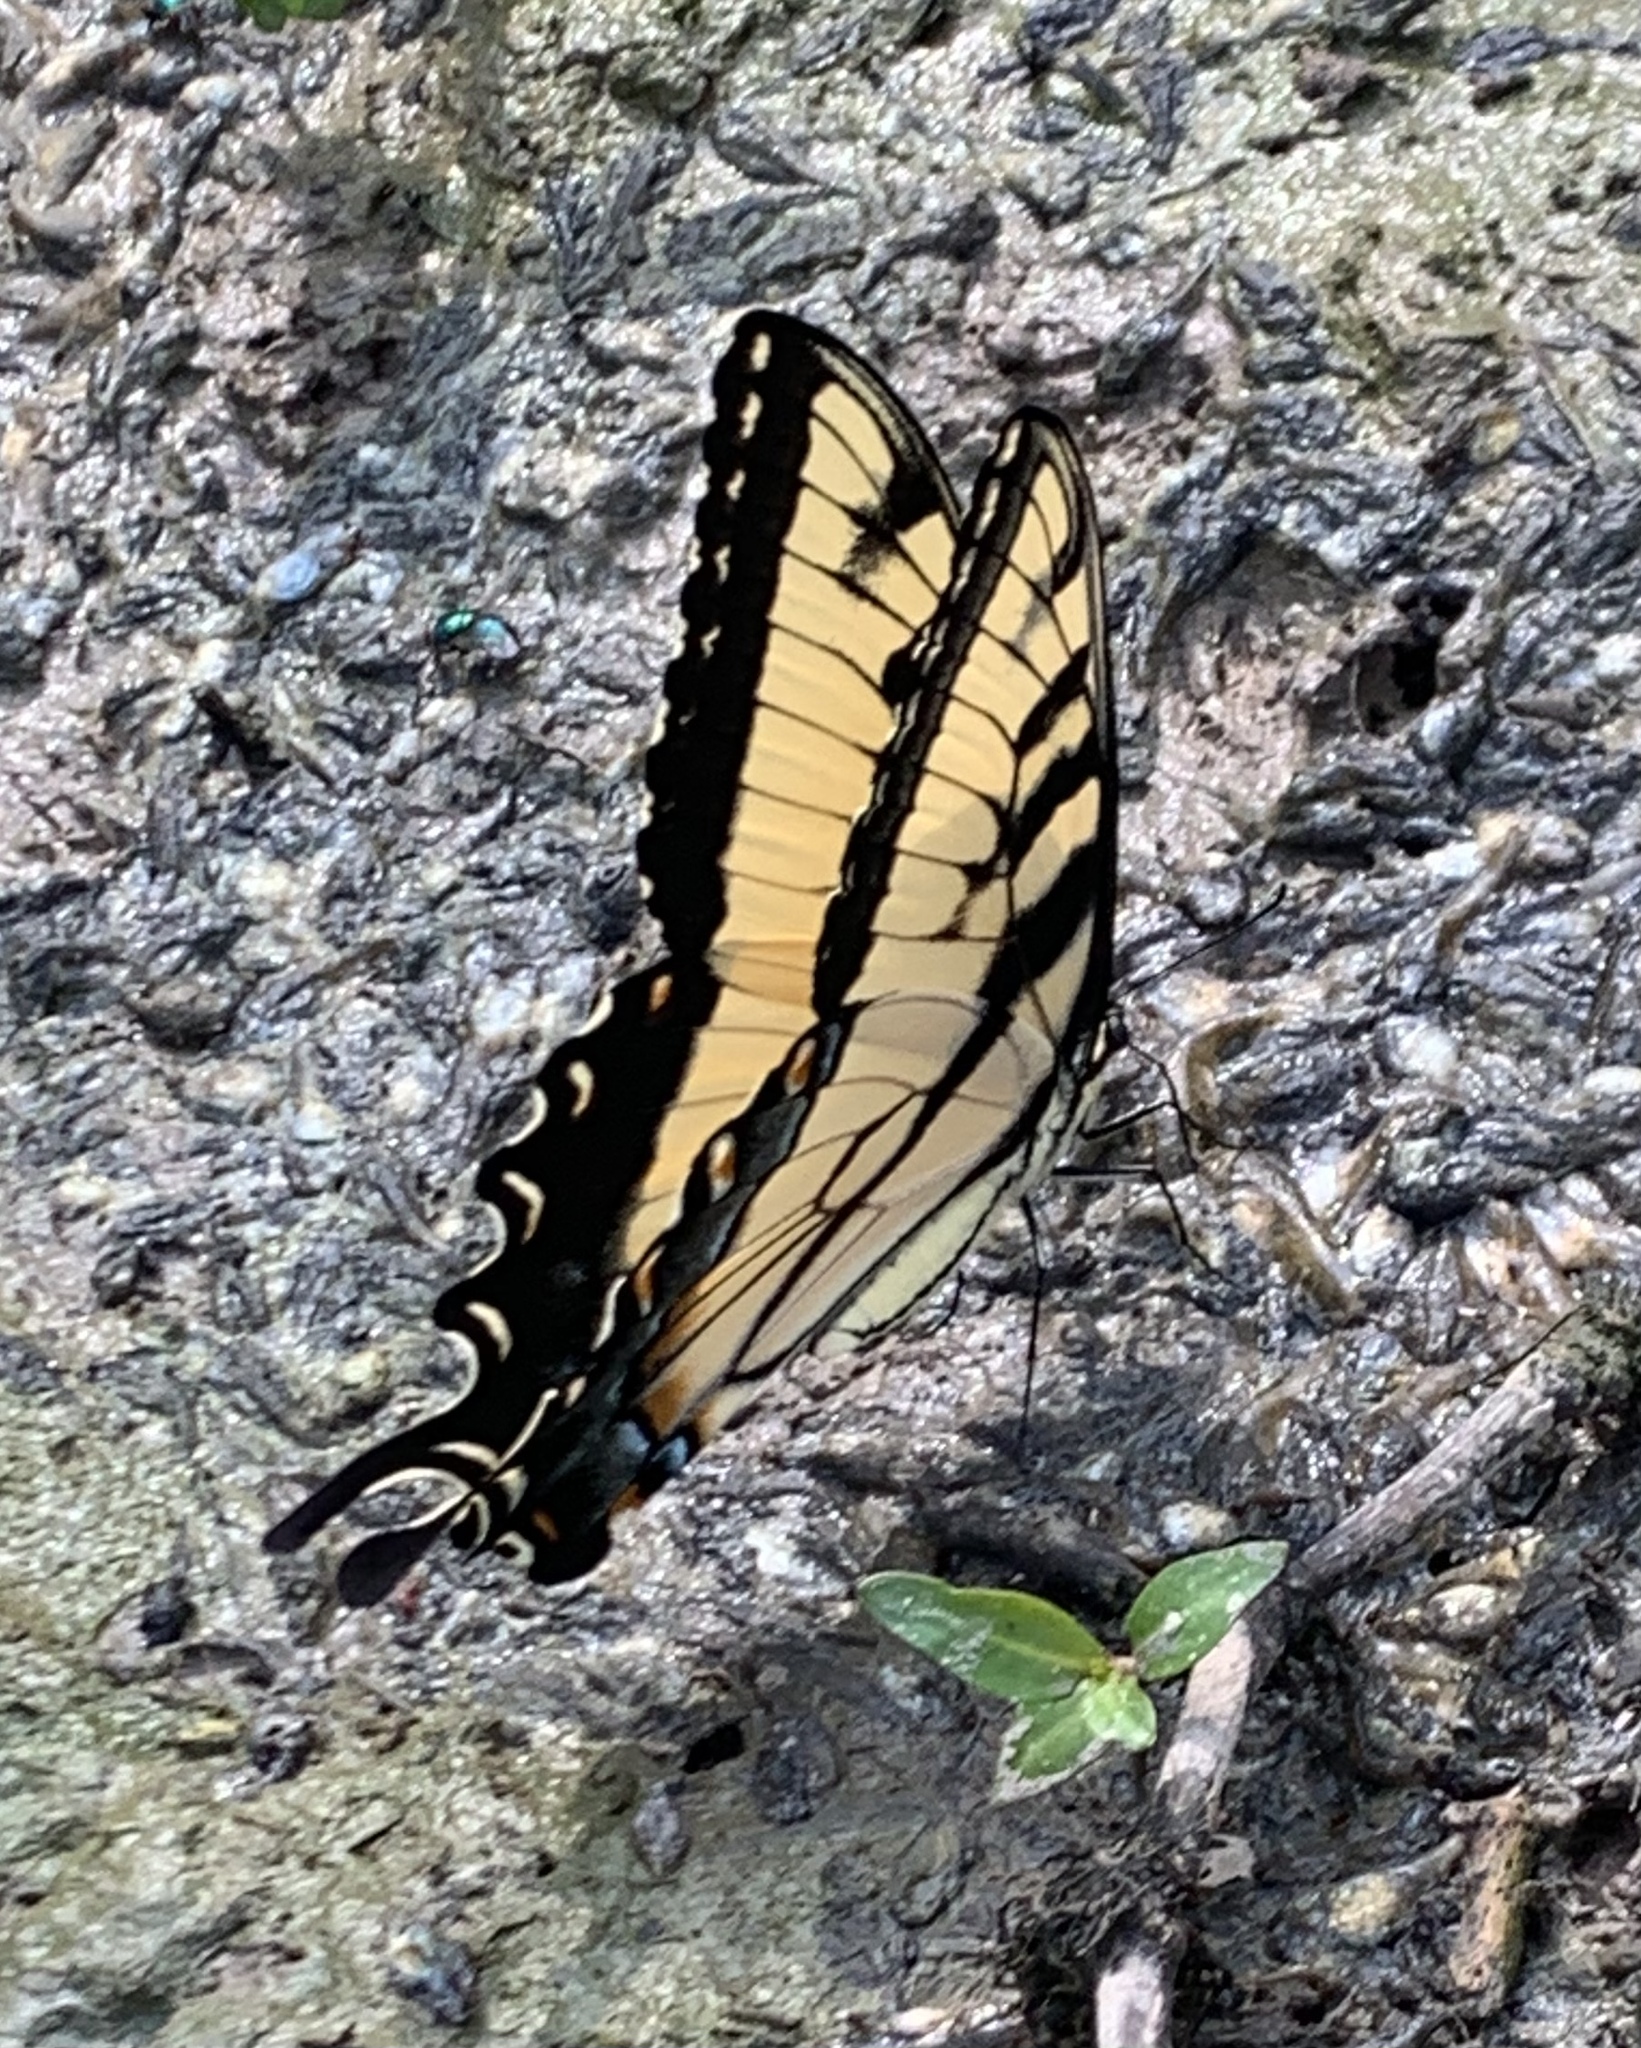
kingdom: Animalia
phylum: Arthropoda
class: Insecta
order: Lepidoptera
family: Papilionidae
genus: Papilio
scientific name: Papilio glaucus
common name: Tiger swallowtail
